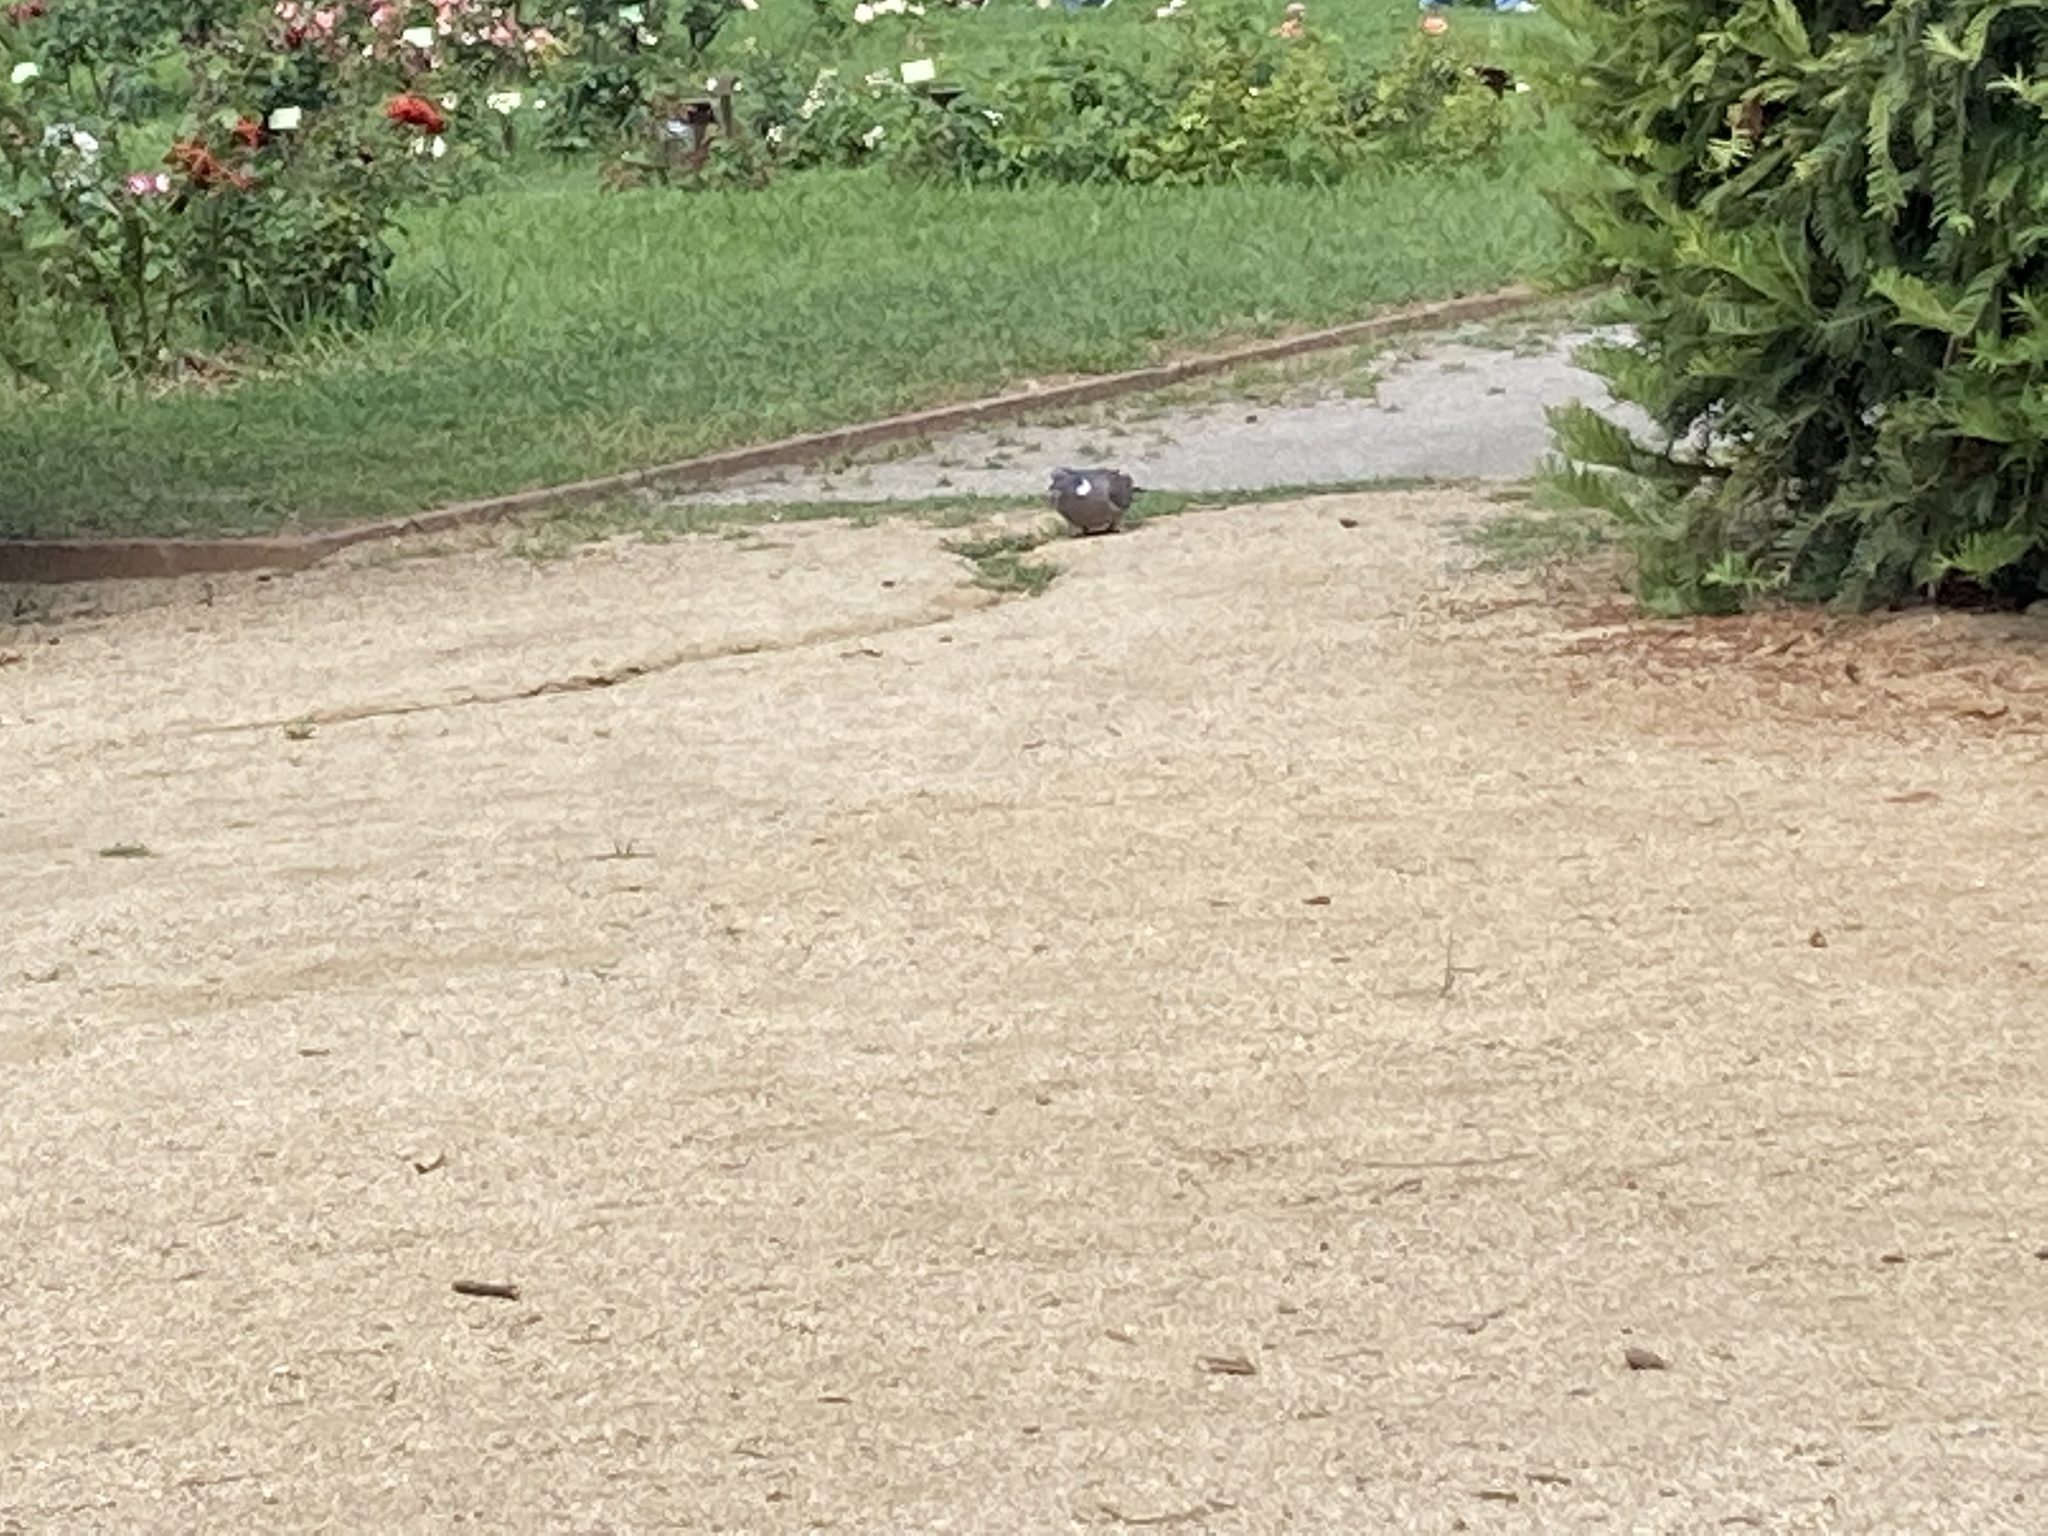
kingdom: Animalia
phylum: Chordata
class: Aves
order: Columbiformes
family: Columbidae
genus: Columba
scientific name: Columba palumbus
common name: Common wood pigeon
